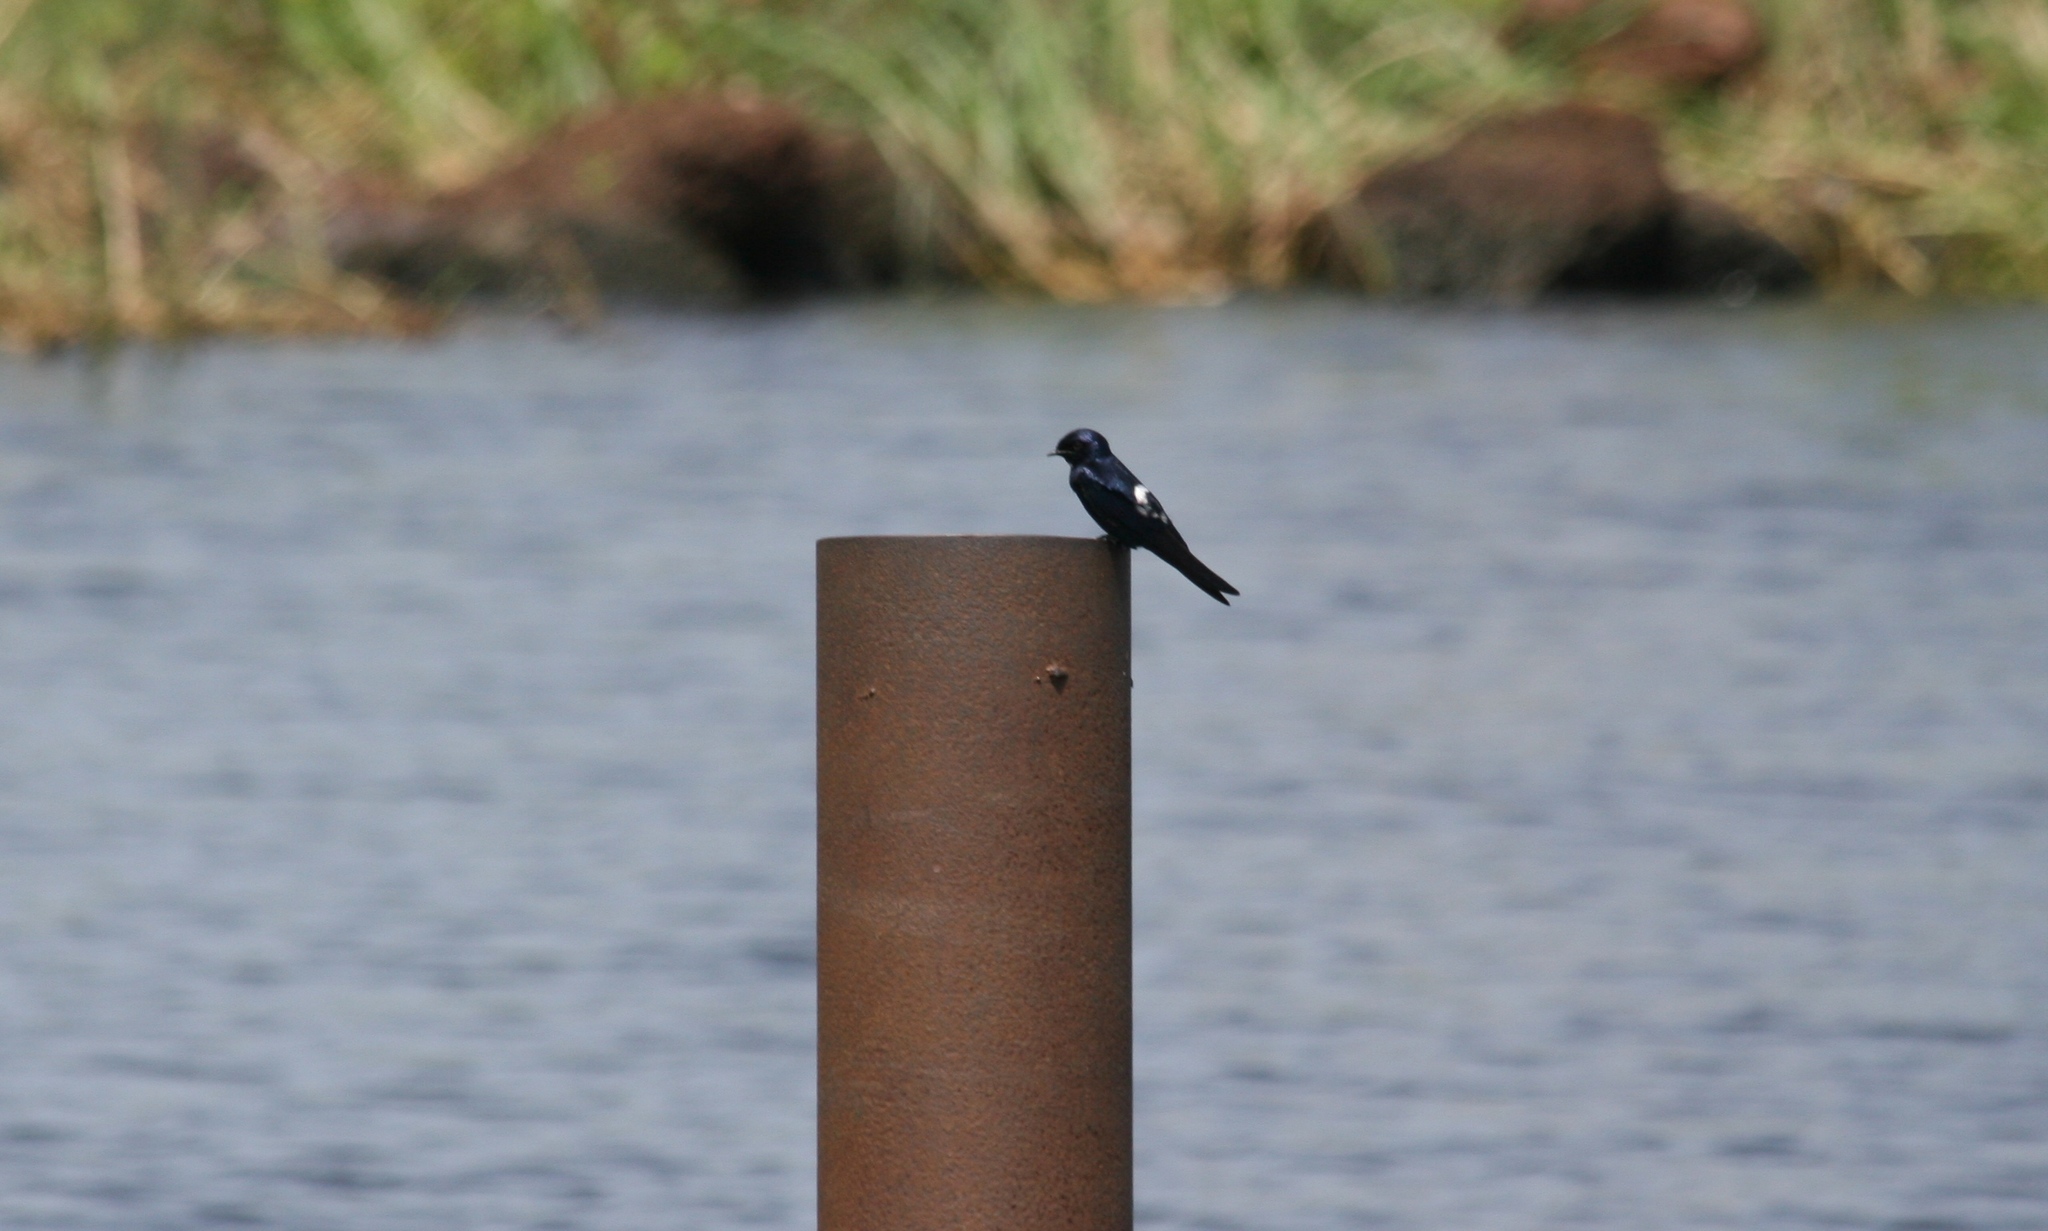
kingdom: Animalia
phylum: Chordata
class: Aves
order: Passeriformes
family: Hirundinidae
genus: Hirundo
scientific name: Hirundo nigrita
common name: White-bibbed swallow
